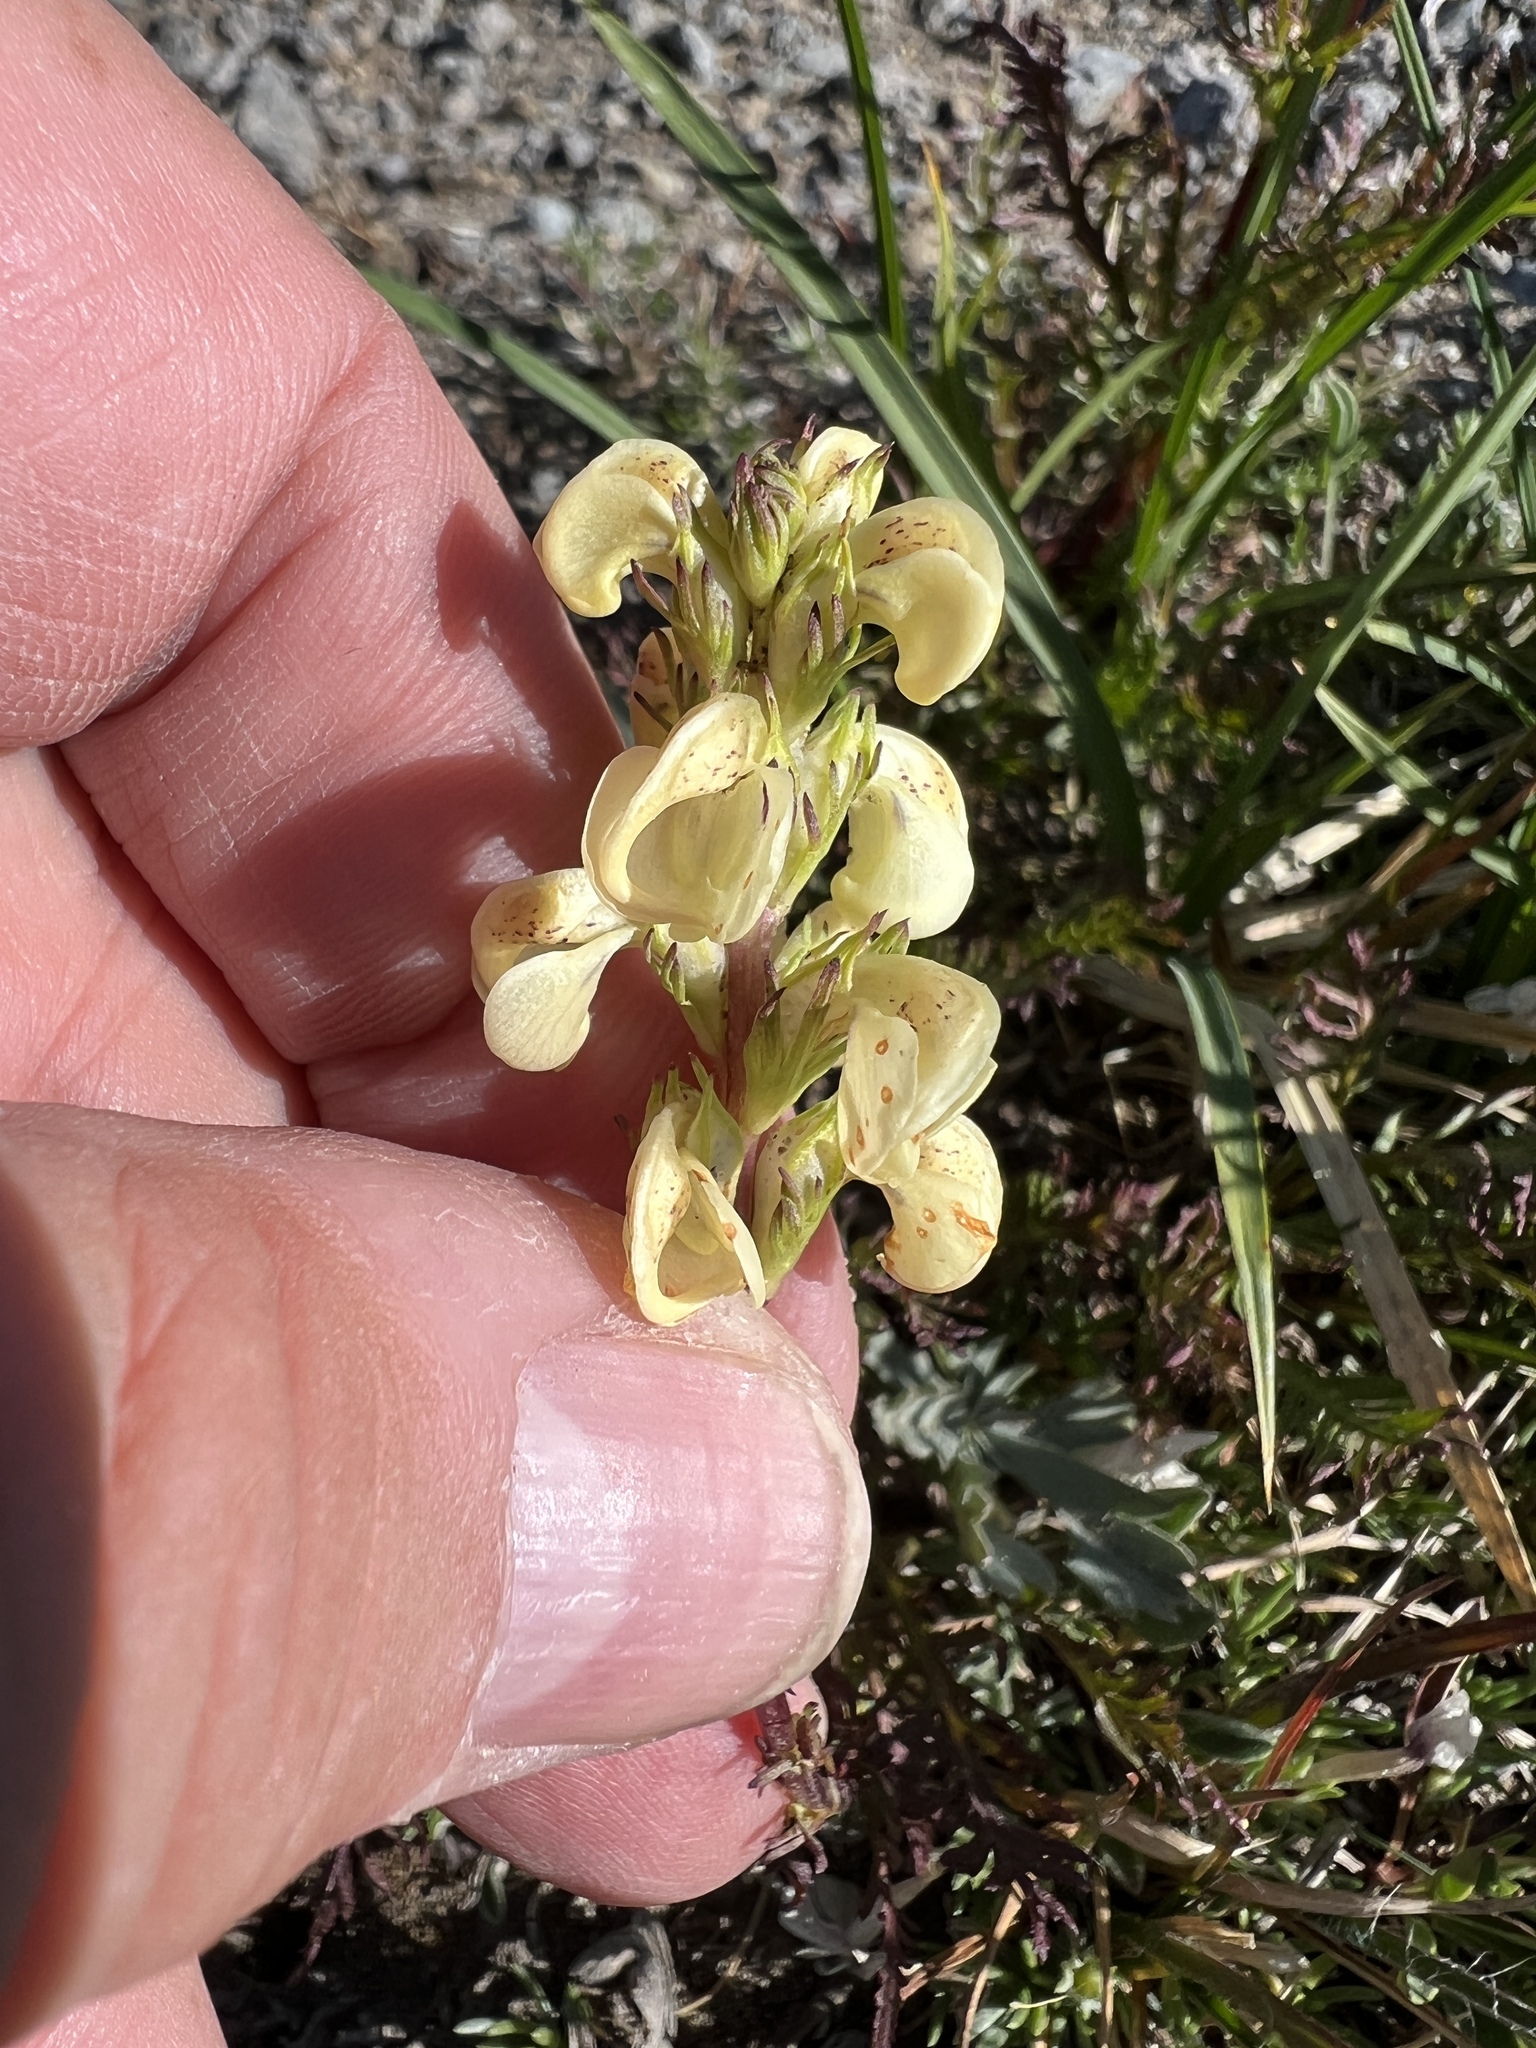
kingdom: Plantae
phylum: Tracheophyta
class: Magnoliopsida
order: Lamiales
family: Orobanchaceae
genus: Pedicularis
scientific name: Pedicularis contorta
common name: Coiled lousewort
